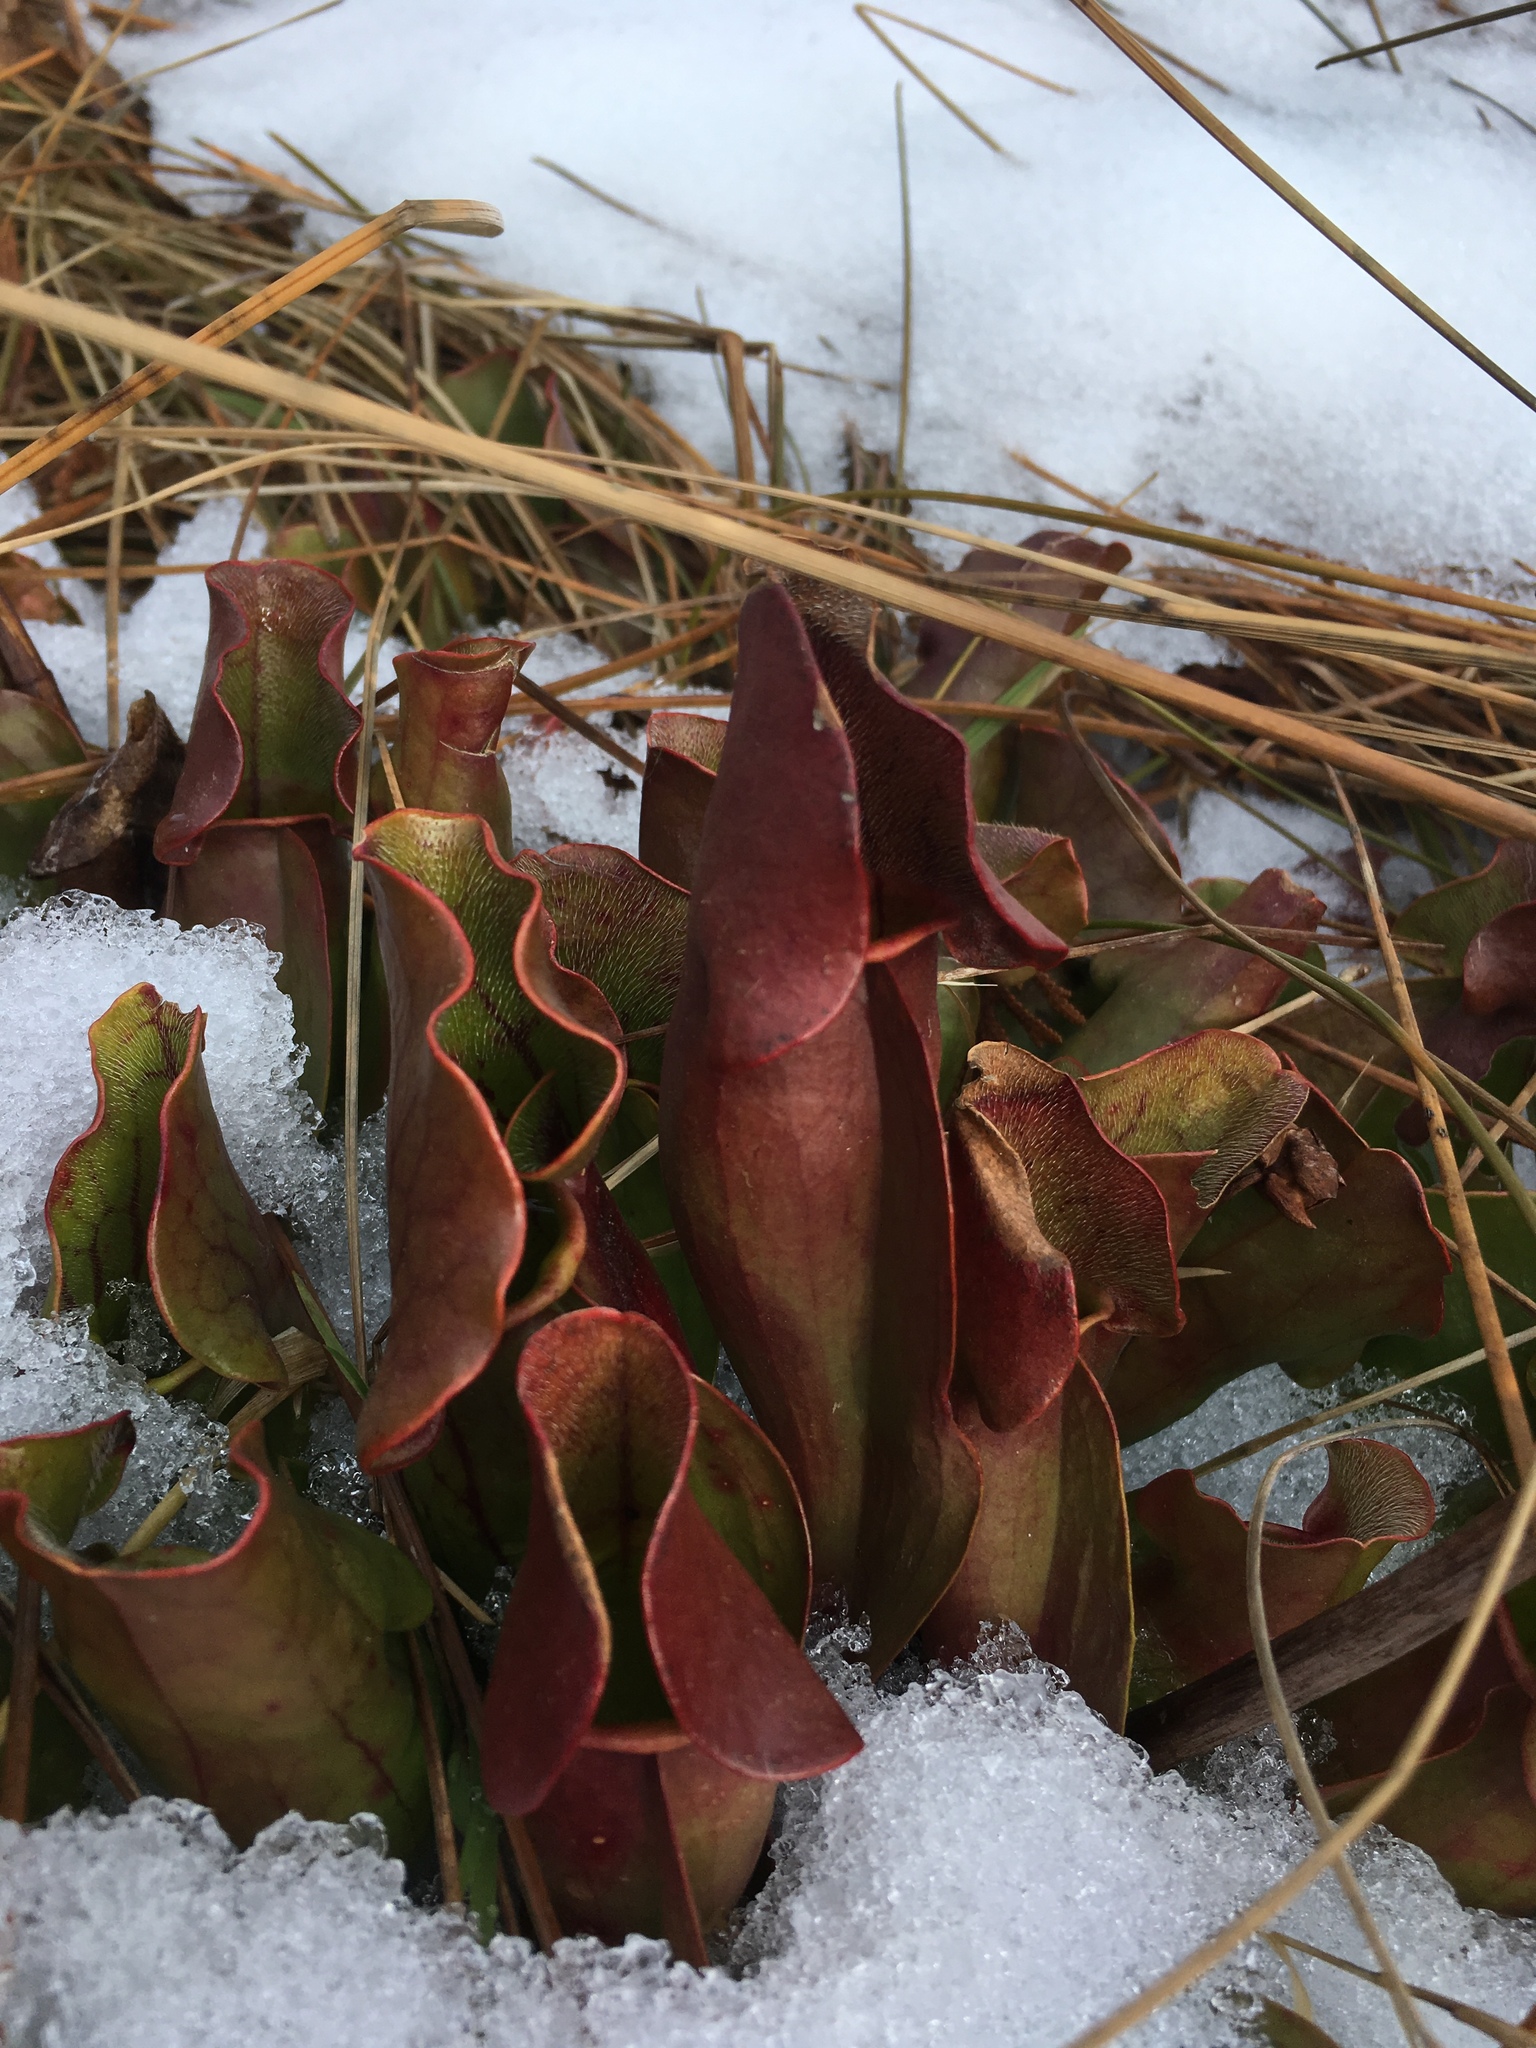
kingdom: Plantae
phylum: Tracheophyta
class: Magnoliopsida
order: Ericales
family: Sarraceniaceae
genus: Sarracenia
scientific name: Sarracenia purpurea
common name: Pitcherplant
